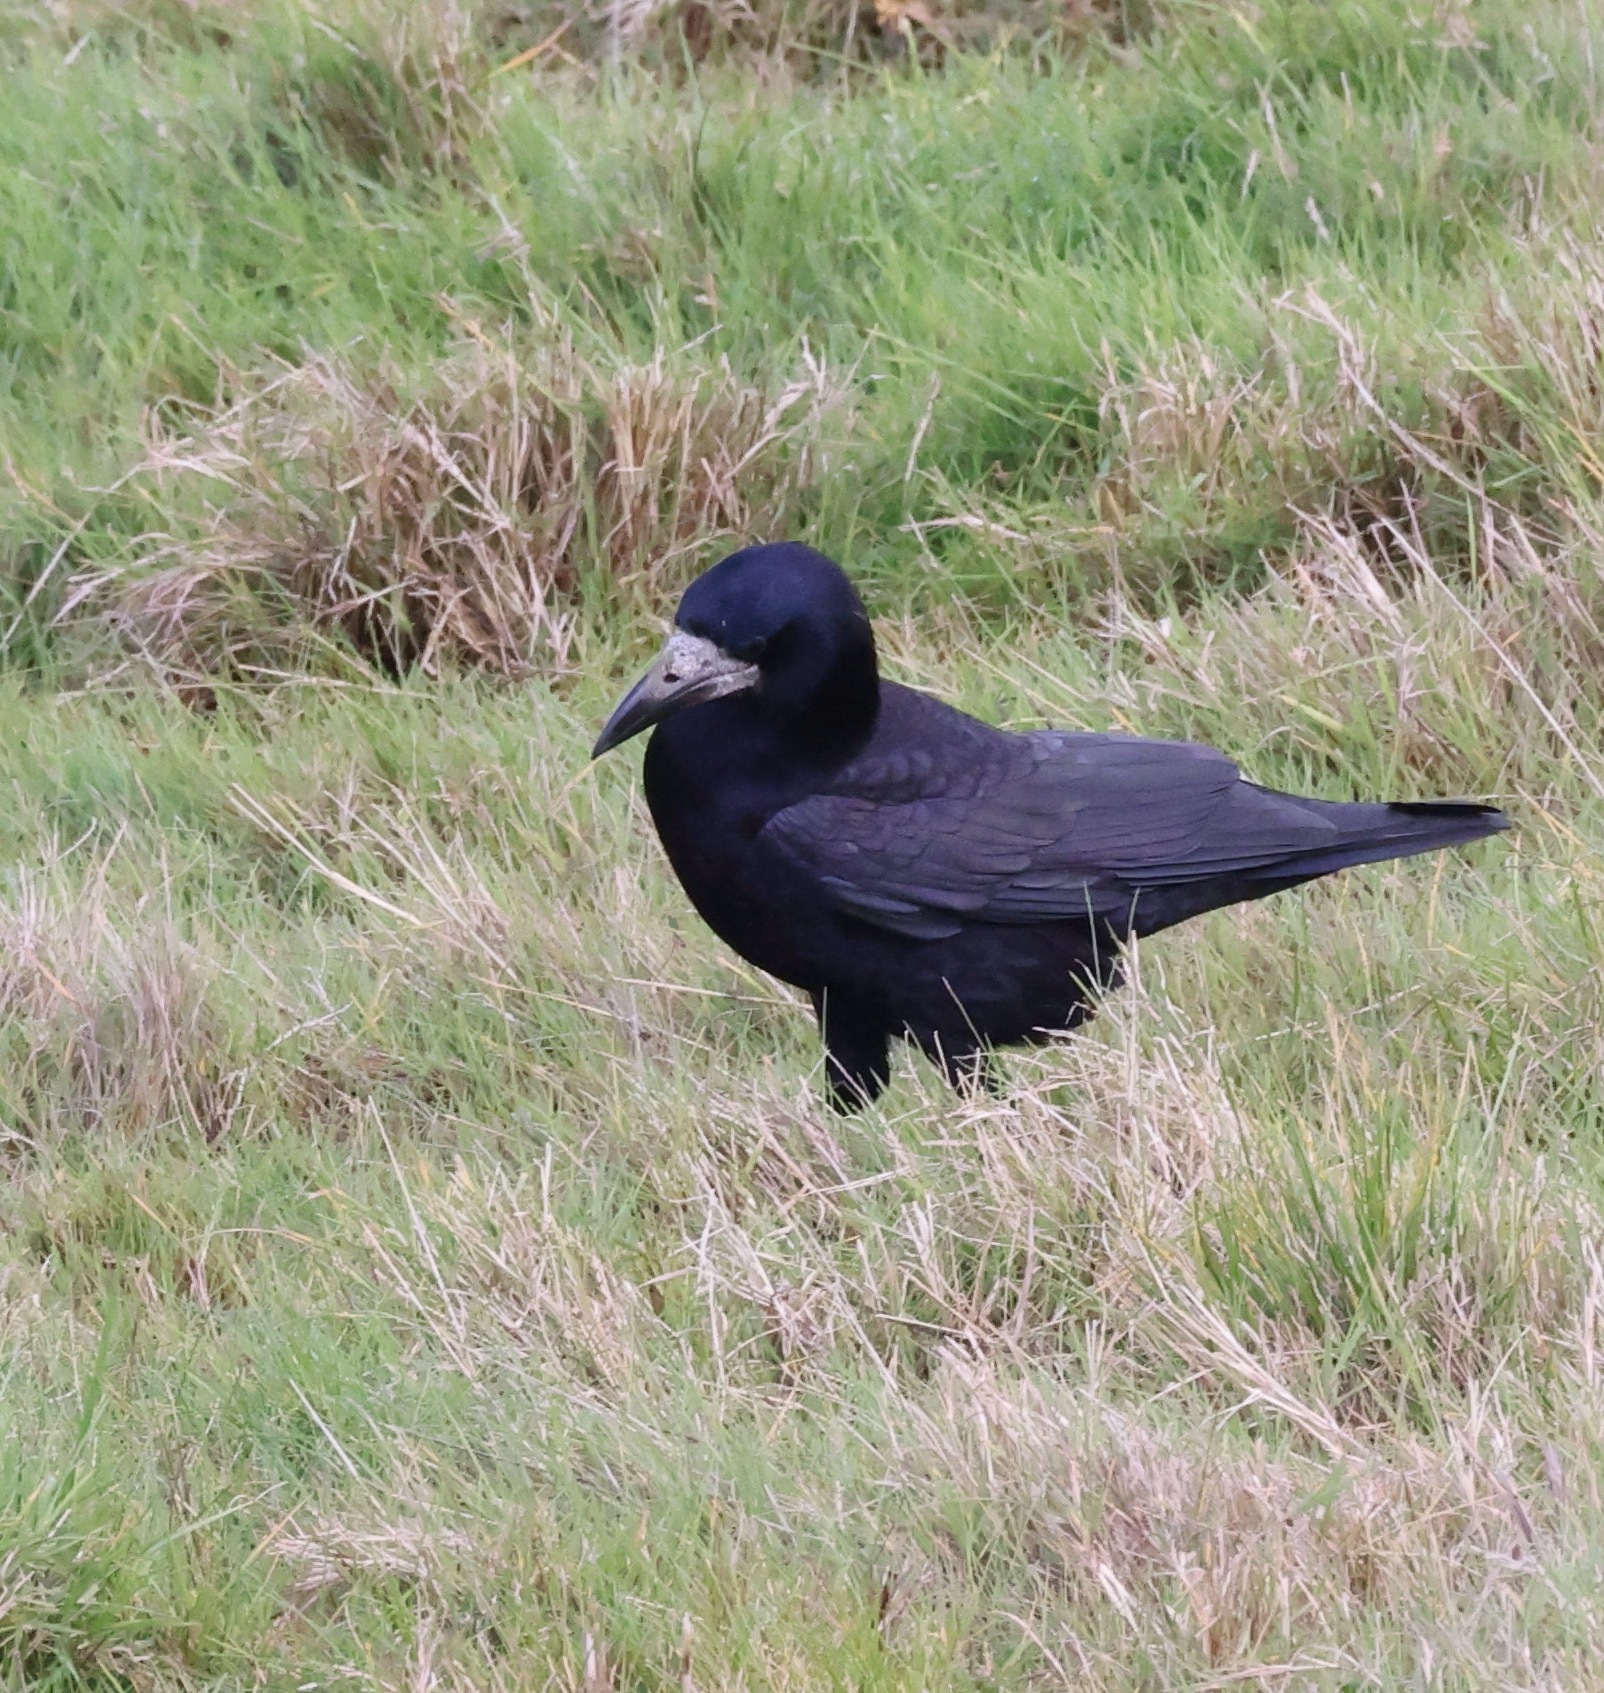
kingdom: Animalia
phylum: Chordata
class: Aves
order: Passeriformes
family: Corvidae
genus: Corvus
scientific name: Corvus frugilegus
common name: Rook
